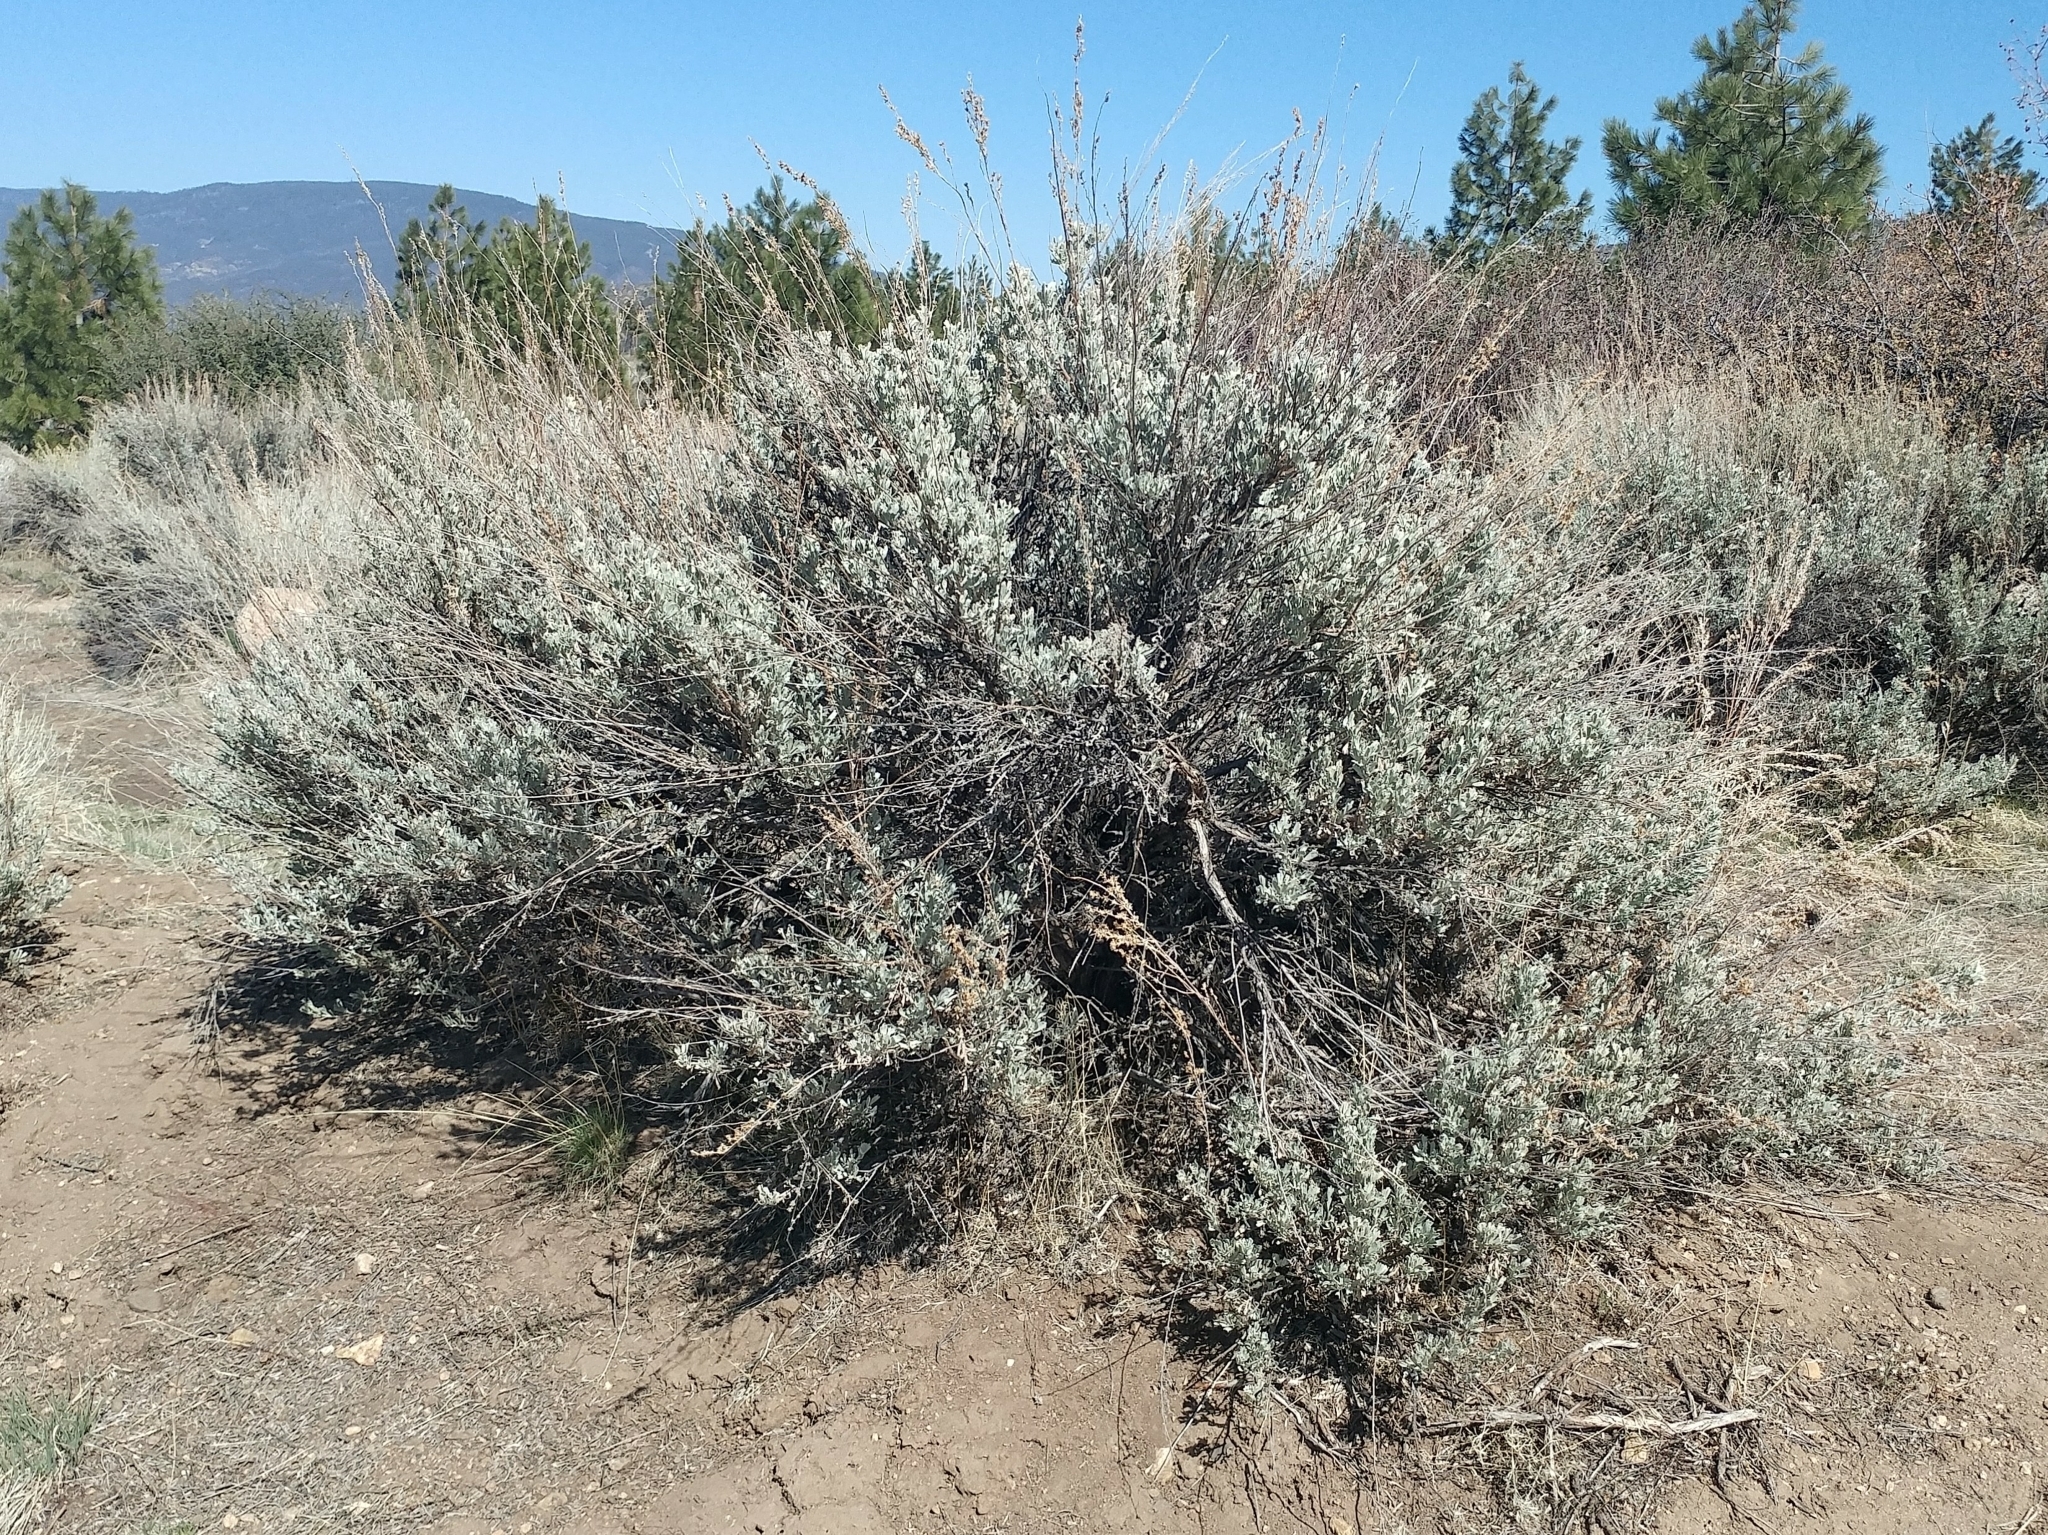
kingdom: Plantae
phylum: Tracheophyta
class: Magnoliopsida
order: Asterales
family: Asteraceae
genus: Artemisia
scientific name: Artemisia tridentata
